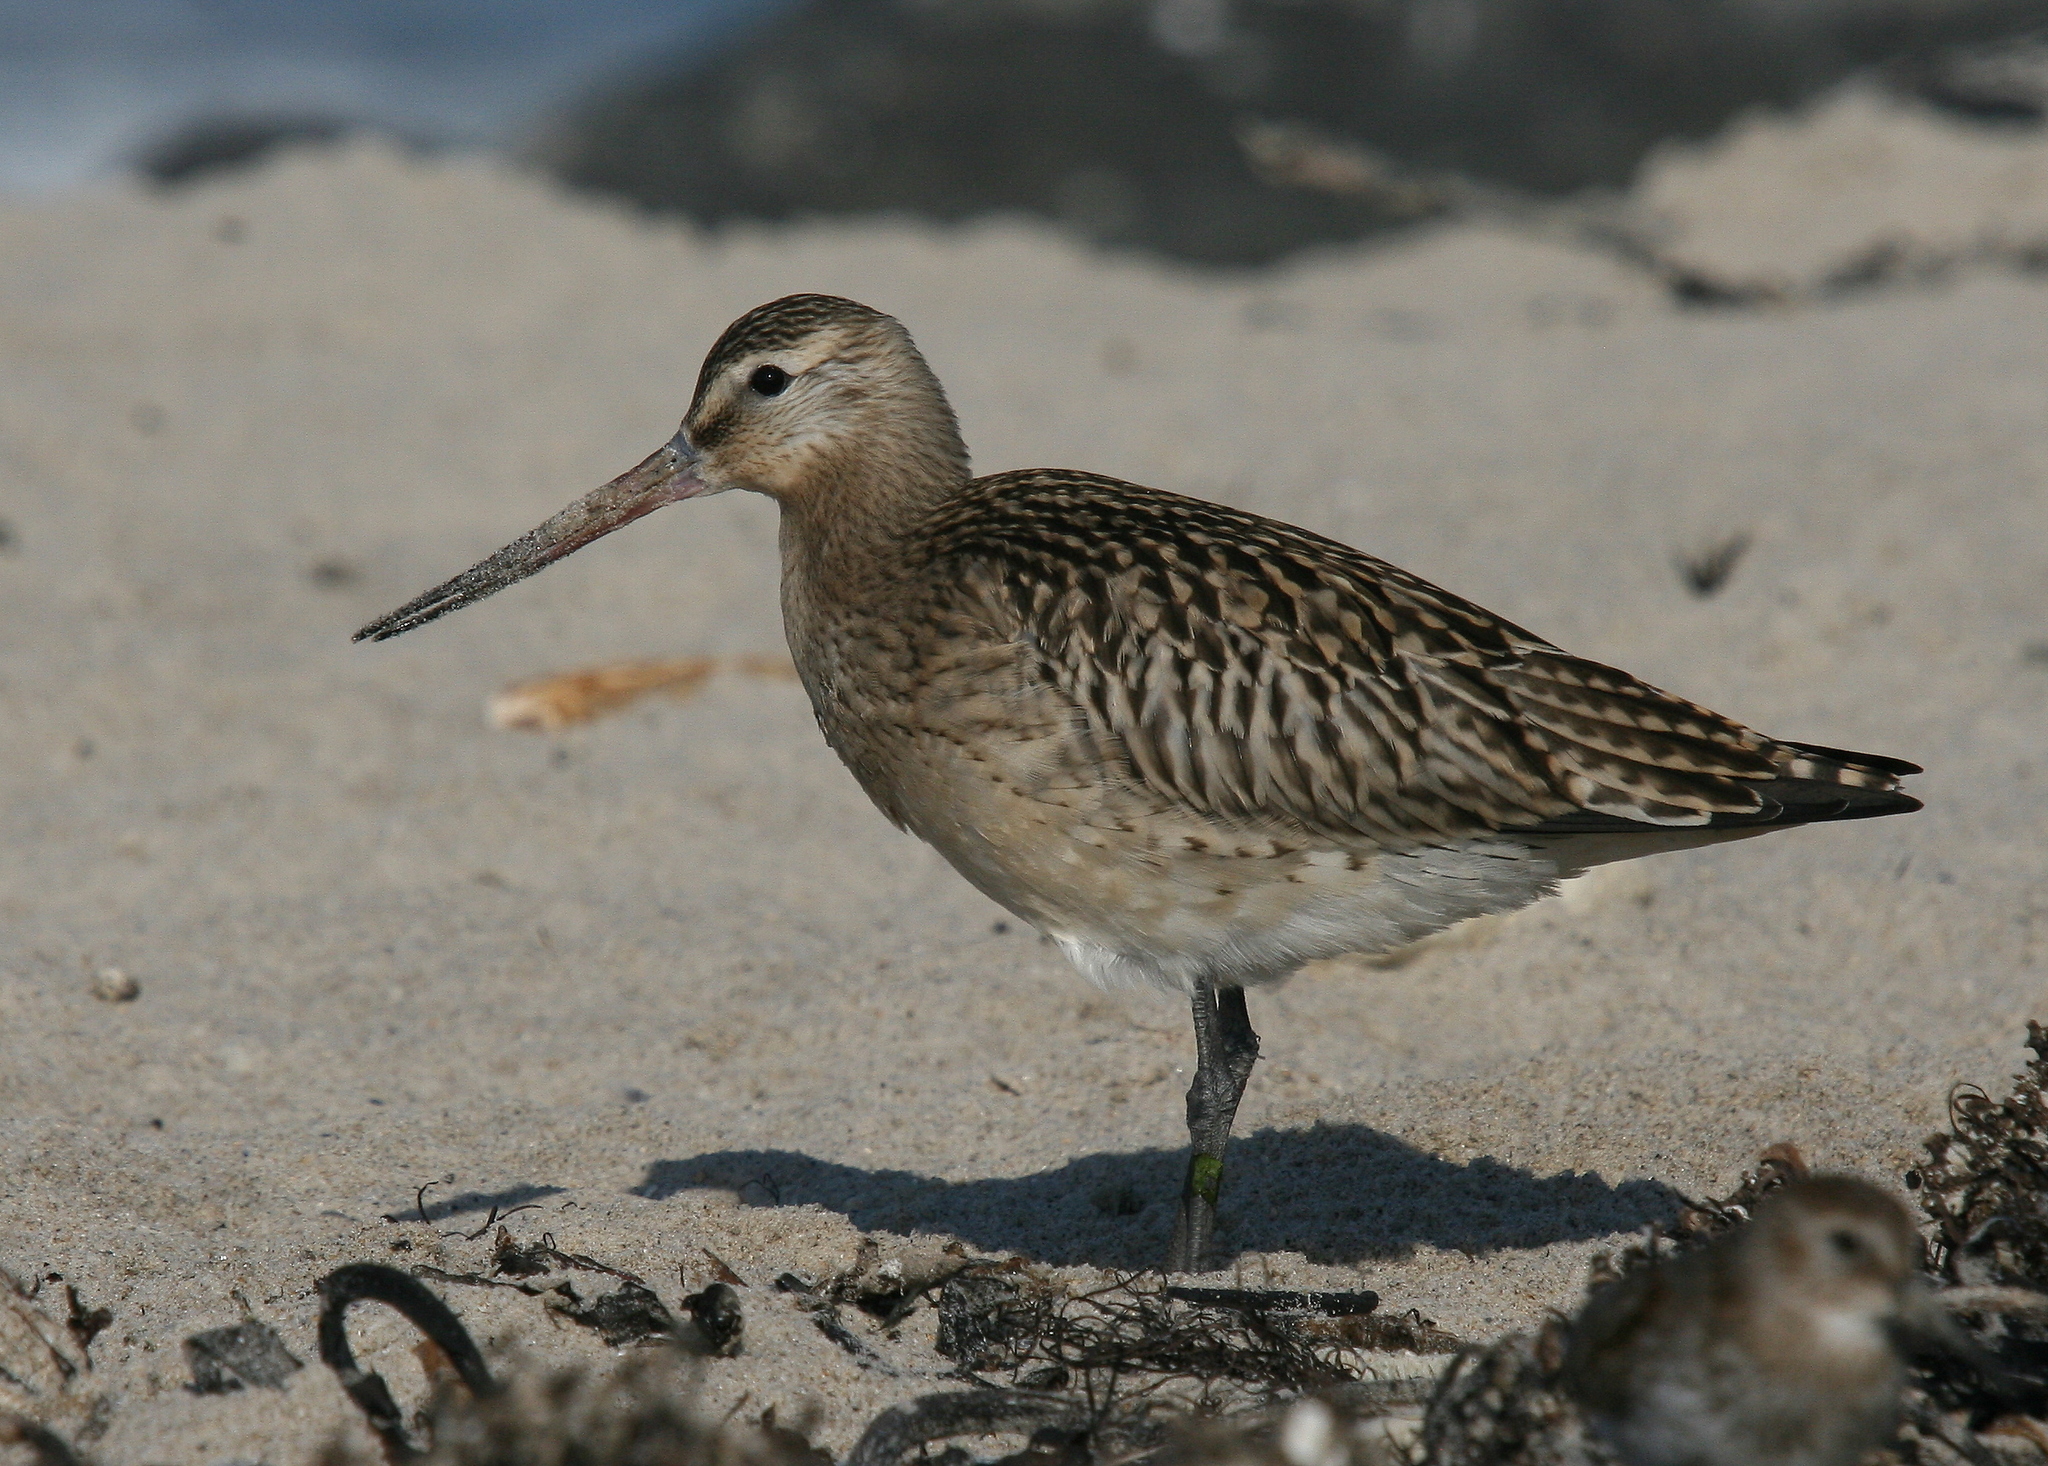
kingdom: Animalia
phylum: Chordata
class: Aves
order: Charadriiformes
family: Scolopacidae
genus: Limosa
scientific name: Limosa lapponica
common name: Bar-tailed godwit
